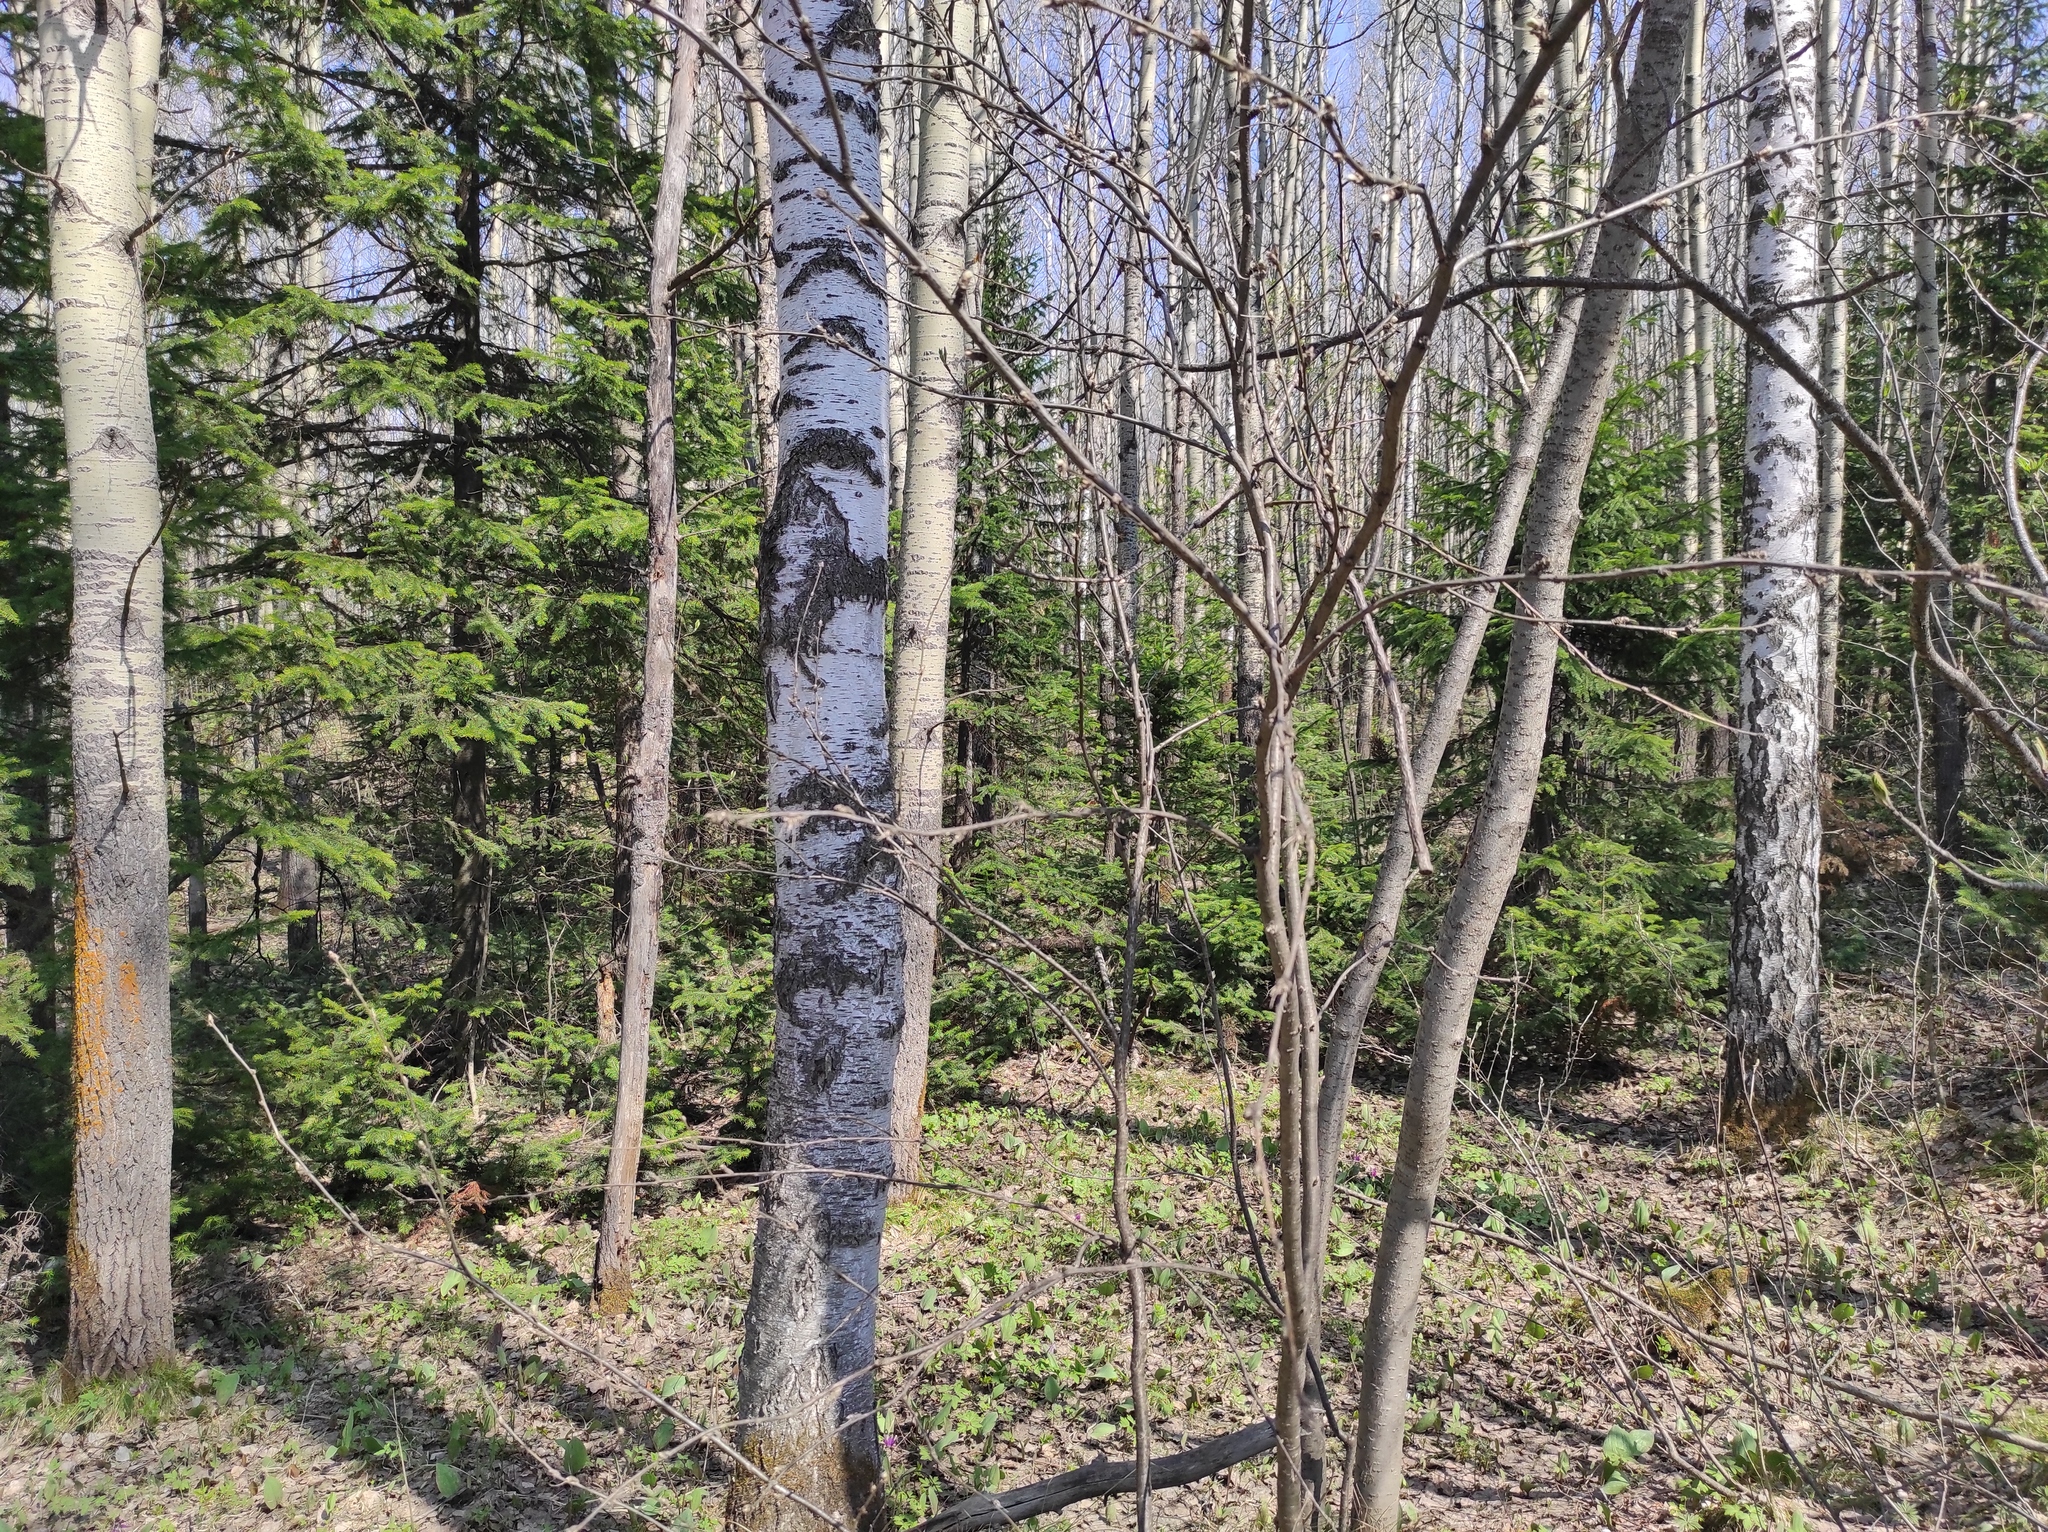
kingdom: Plantae
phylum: Tracheophyta
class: Pinopsida
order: Pinales
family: Pinaceae
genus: Abies
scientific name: Abies sibirica
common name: Siberian fir
